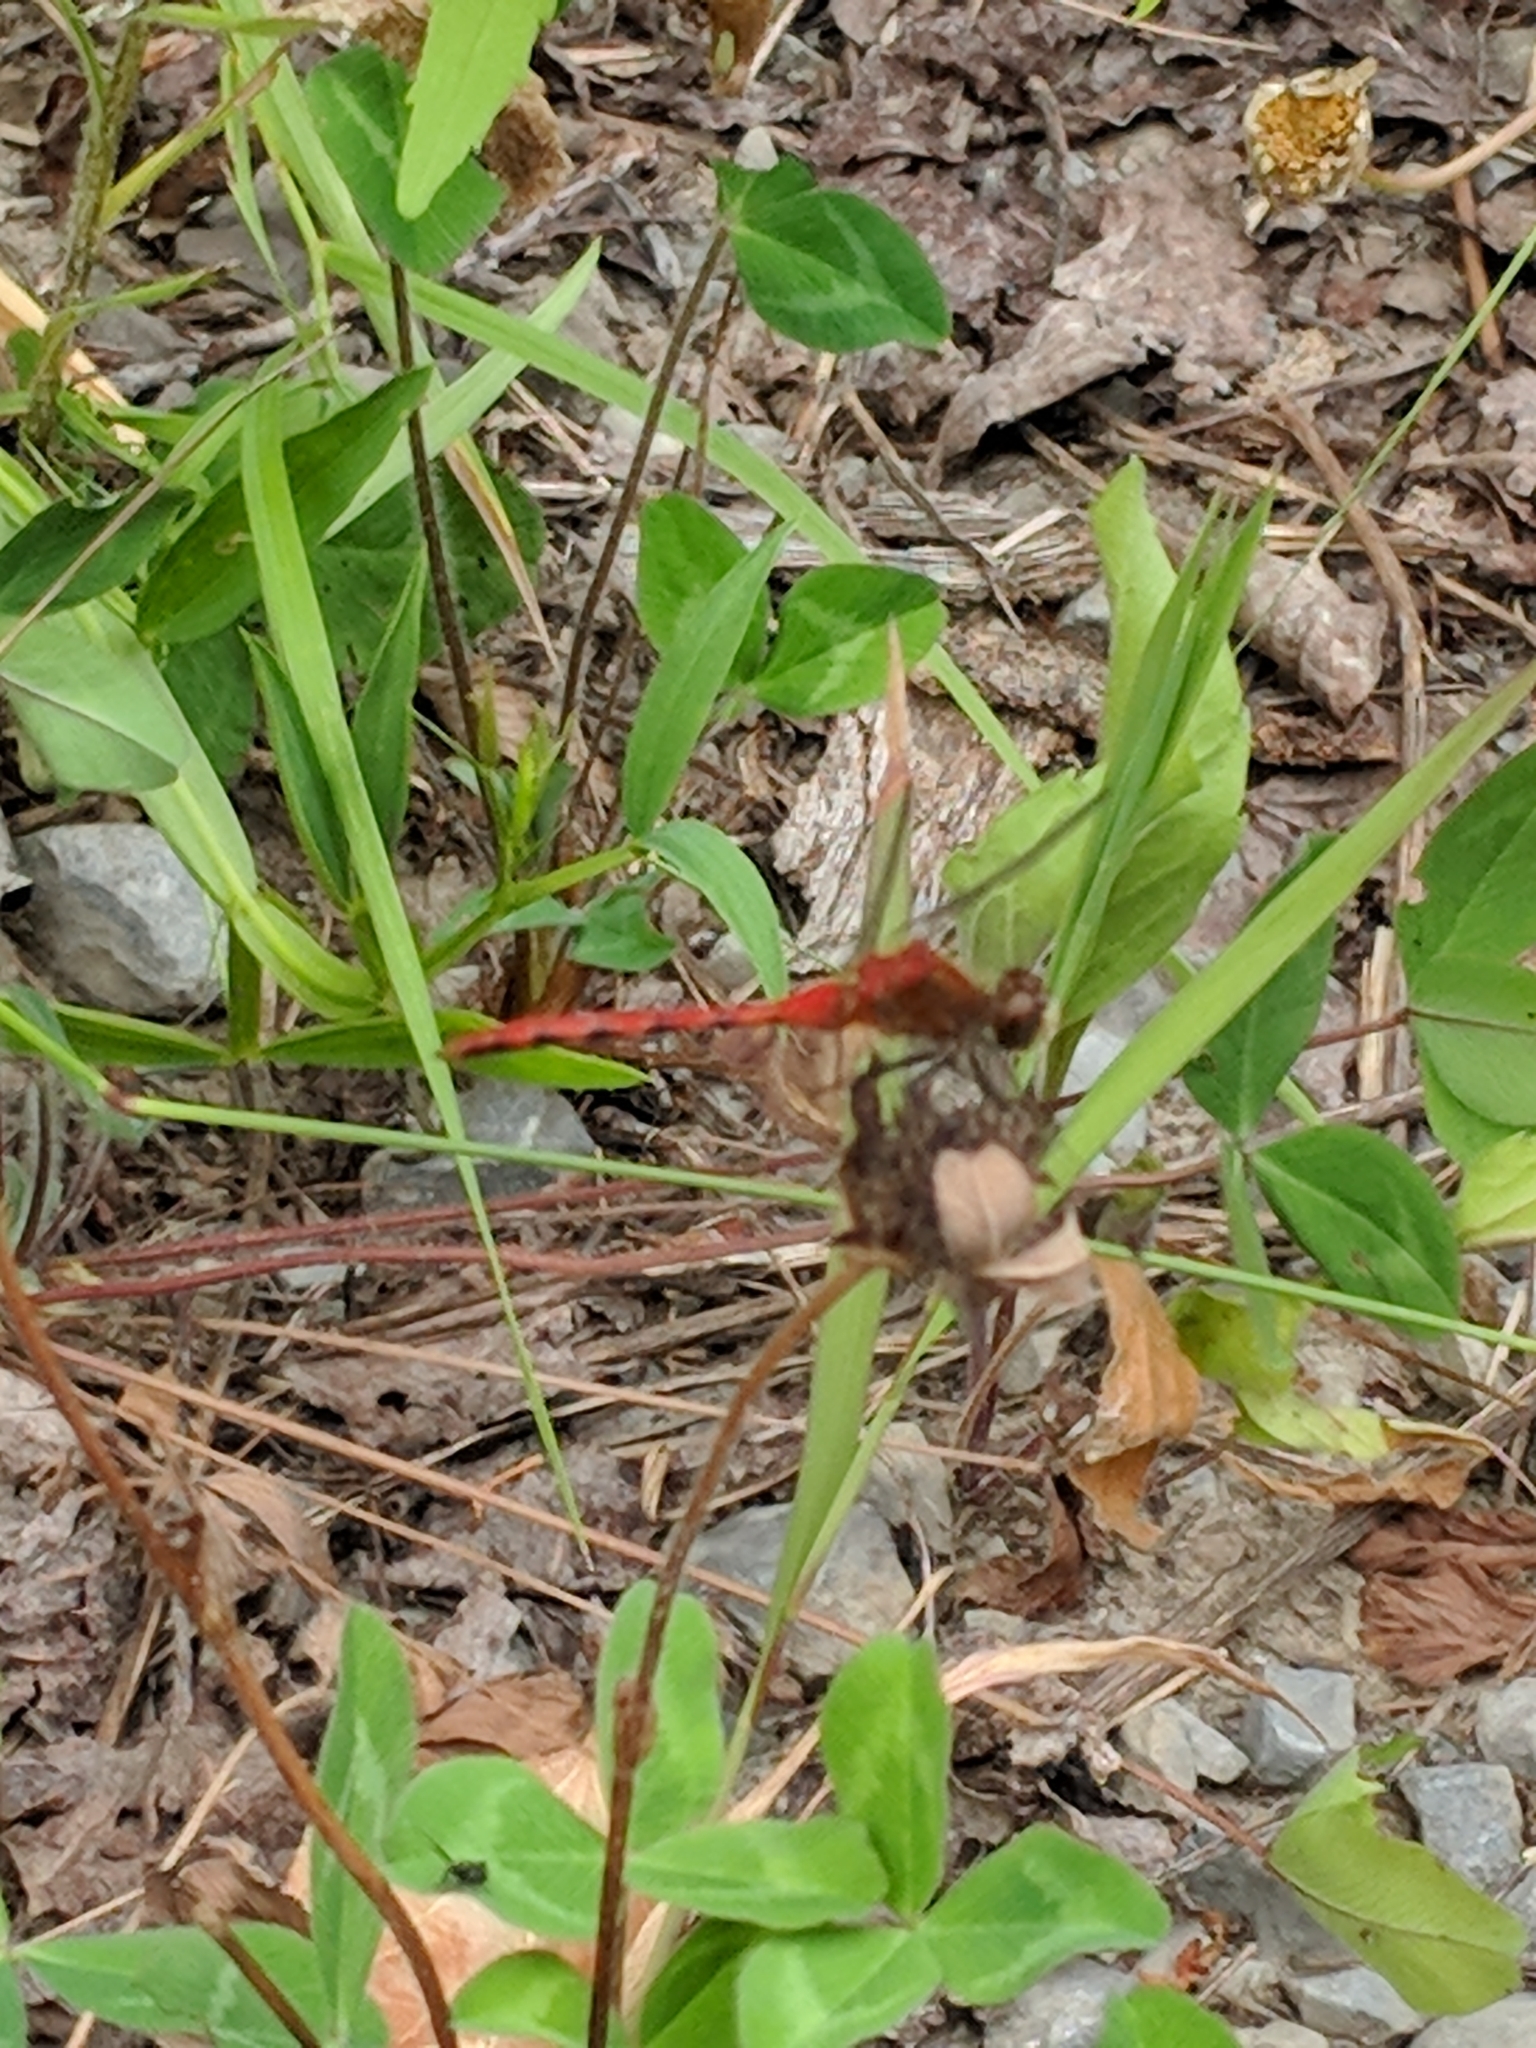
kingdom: Animalia
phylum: Arthropoda
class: Insecta
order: Odonata
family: Libellulidae
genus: Sympetrum
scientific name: Sympetrum obtrusum
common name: White-faced meadowhawk
